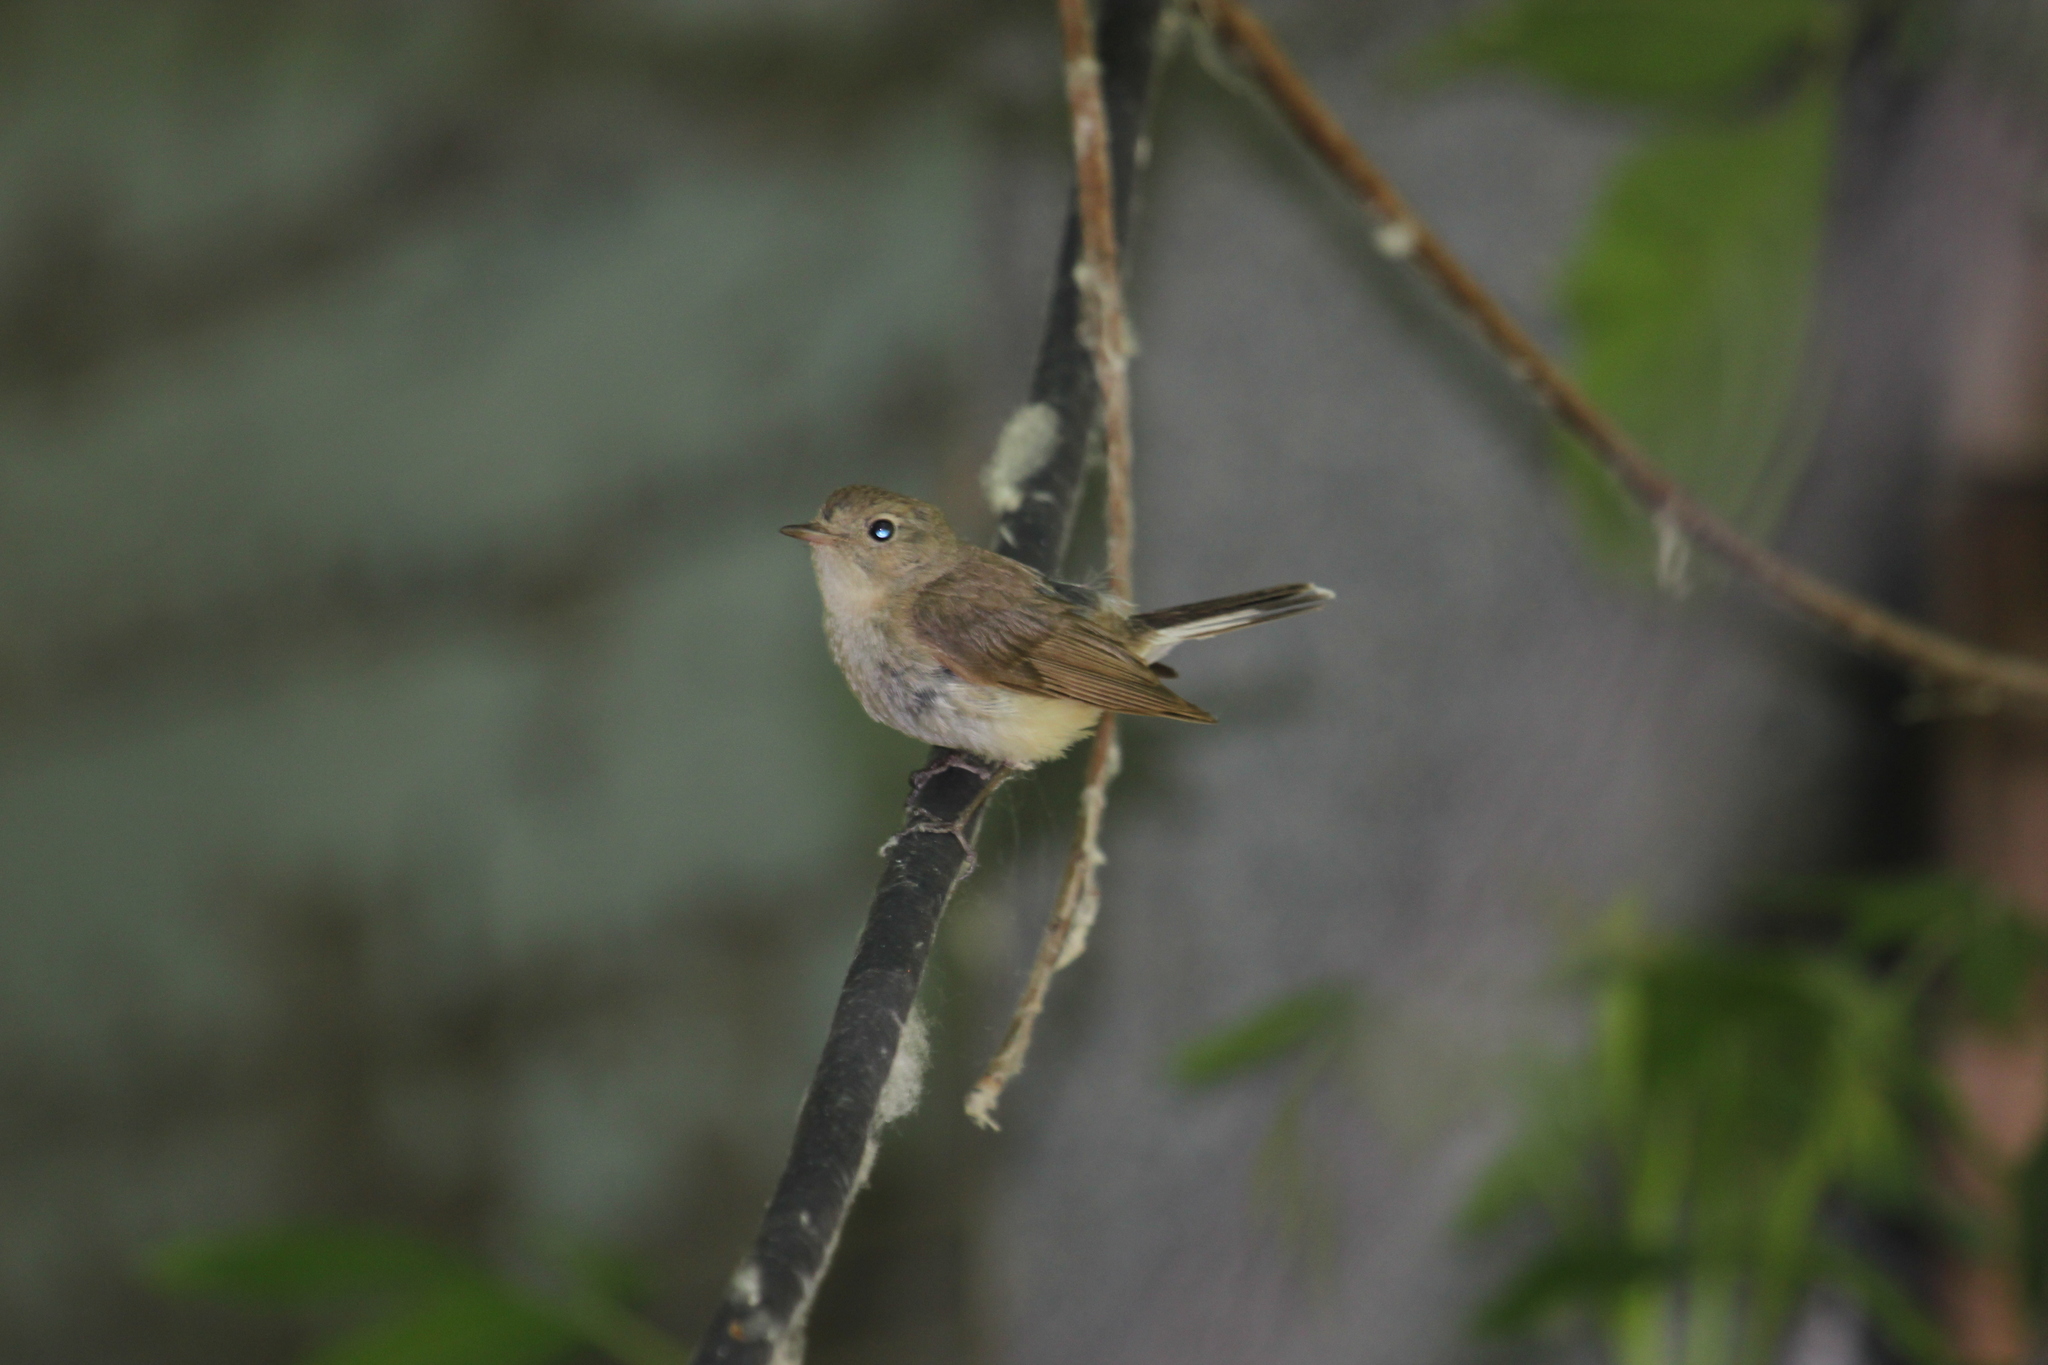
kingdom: Animalia
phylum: Chordata
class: Aves
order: Passeriformes
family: Muscicapidae
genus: Ficedula
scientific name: Ficedula parva
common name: Red-breasted flycatcher
